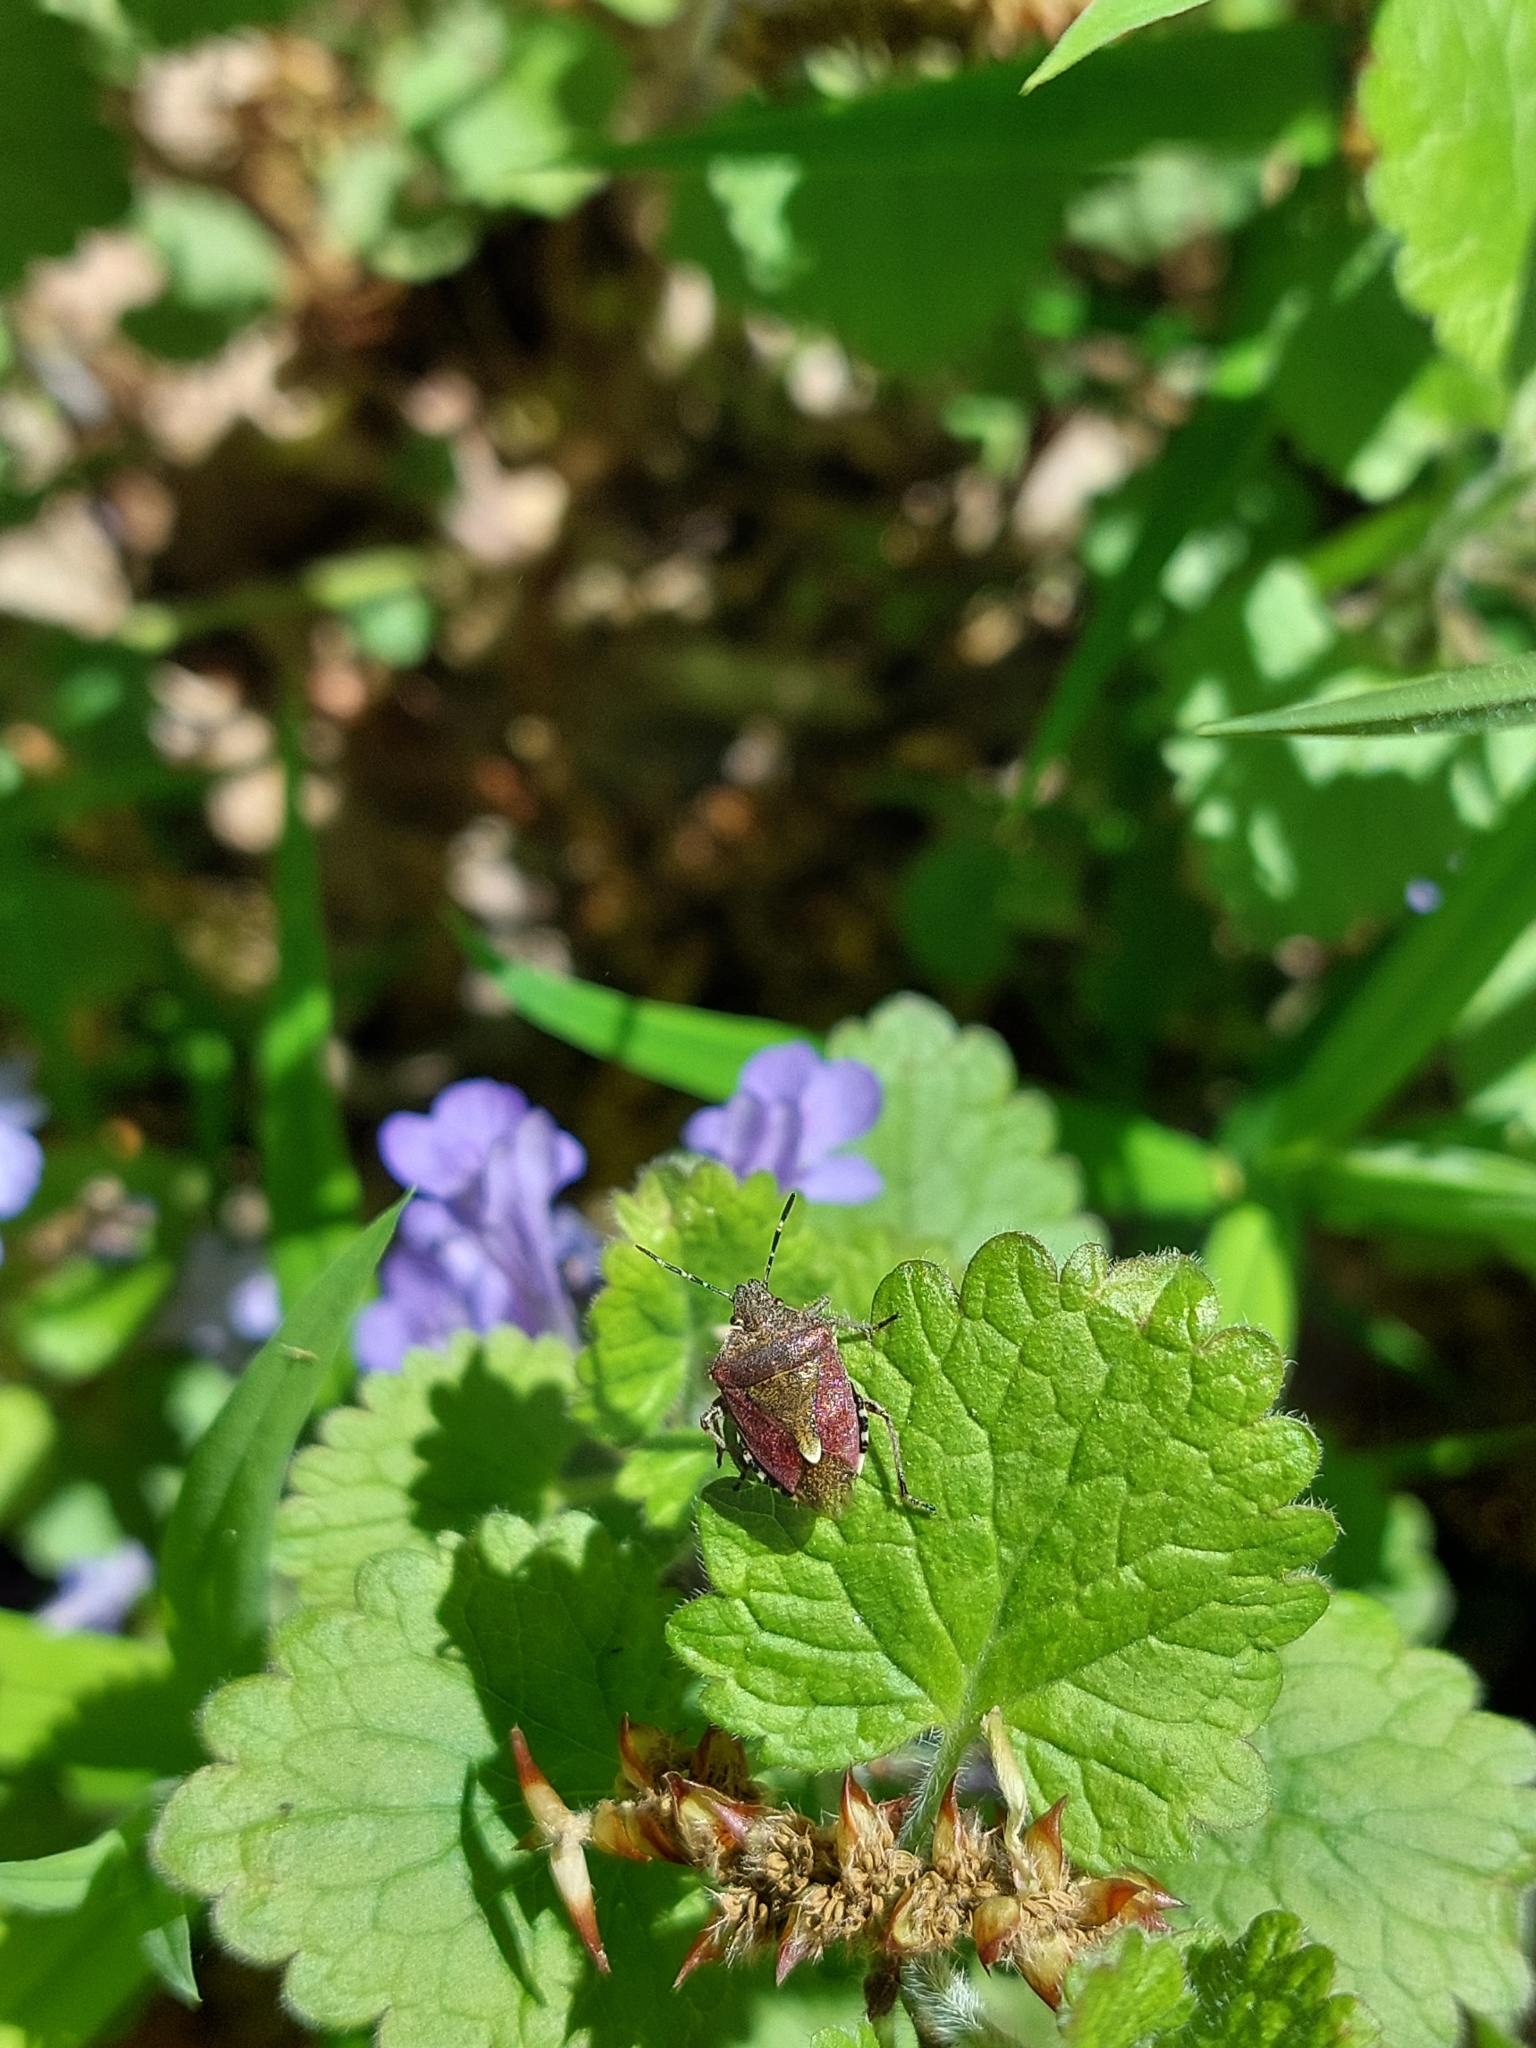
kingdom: Animalia
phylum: Arthropoda
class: Insecta
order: Hemiptera
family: Pentatomidae
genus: Dolycoris
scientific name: Dolycoris baccarum
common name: Sloe bug
